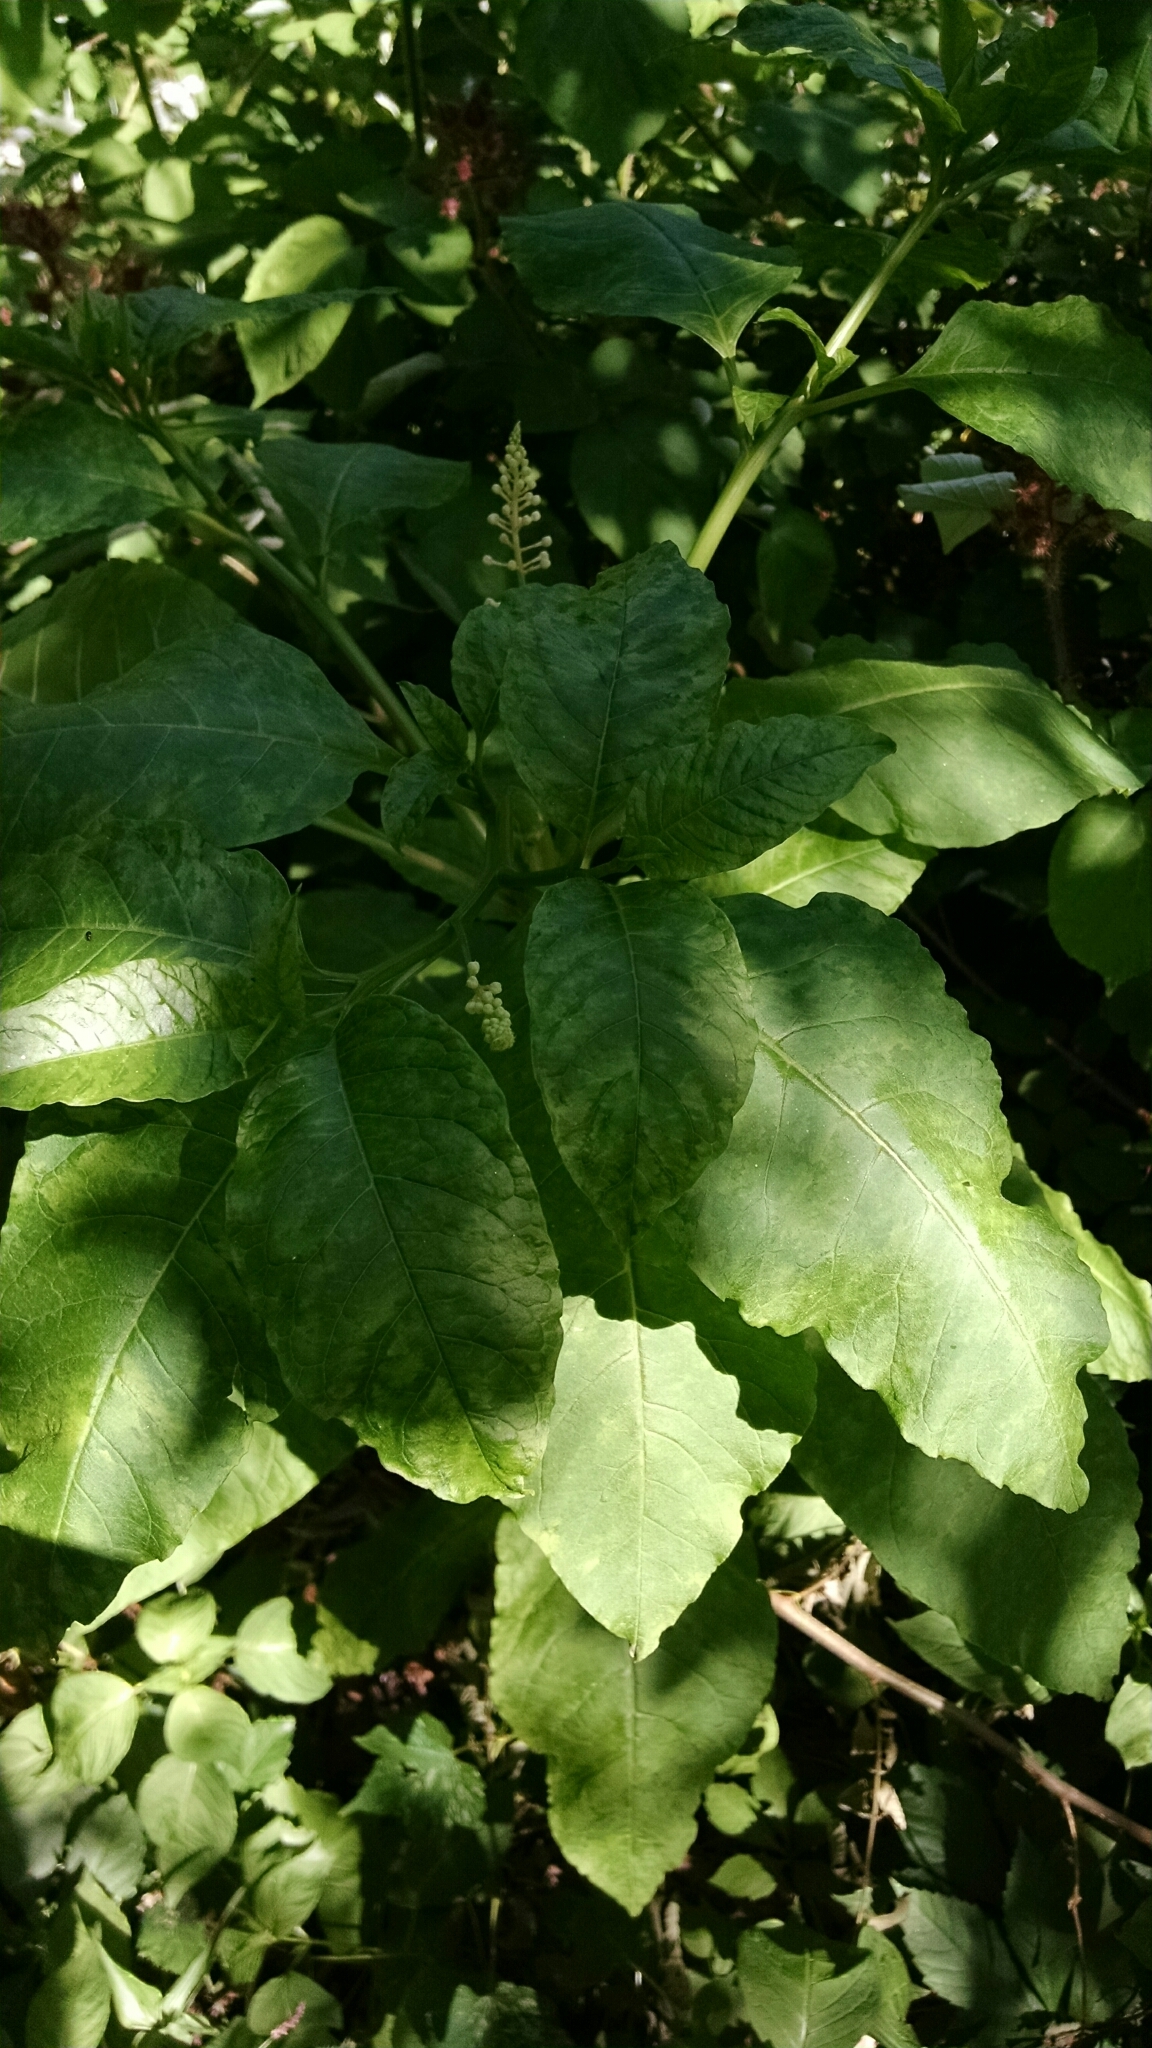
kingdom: Plantae
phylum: Tracheophyta
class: Magnoliopsida
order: Caryophyllales
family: Phytolaccaceae
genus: Phytolacca
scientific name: Phytolacca americana
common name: American pokeweed
